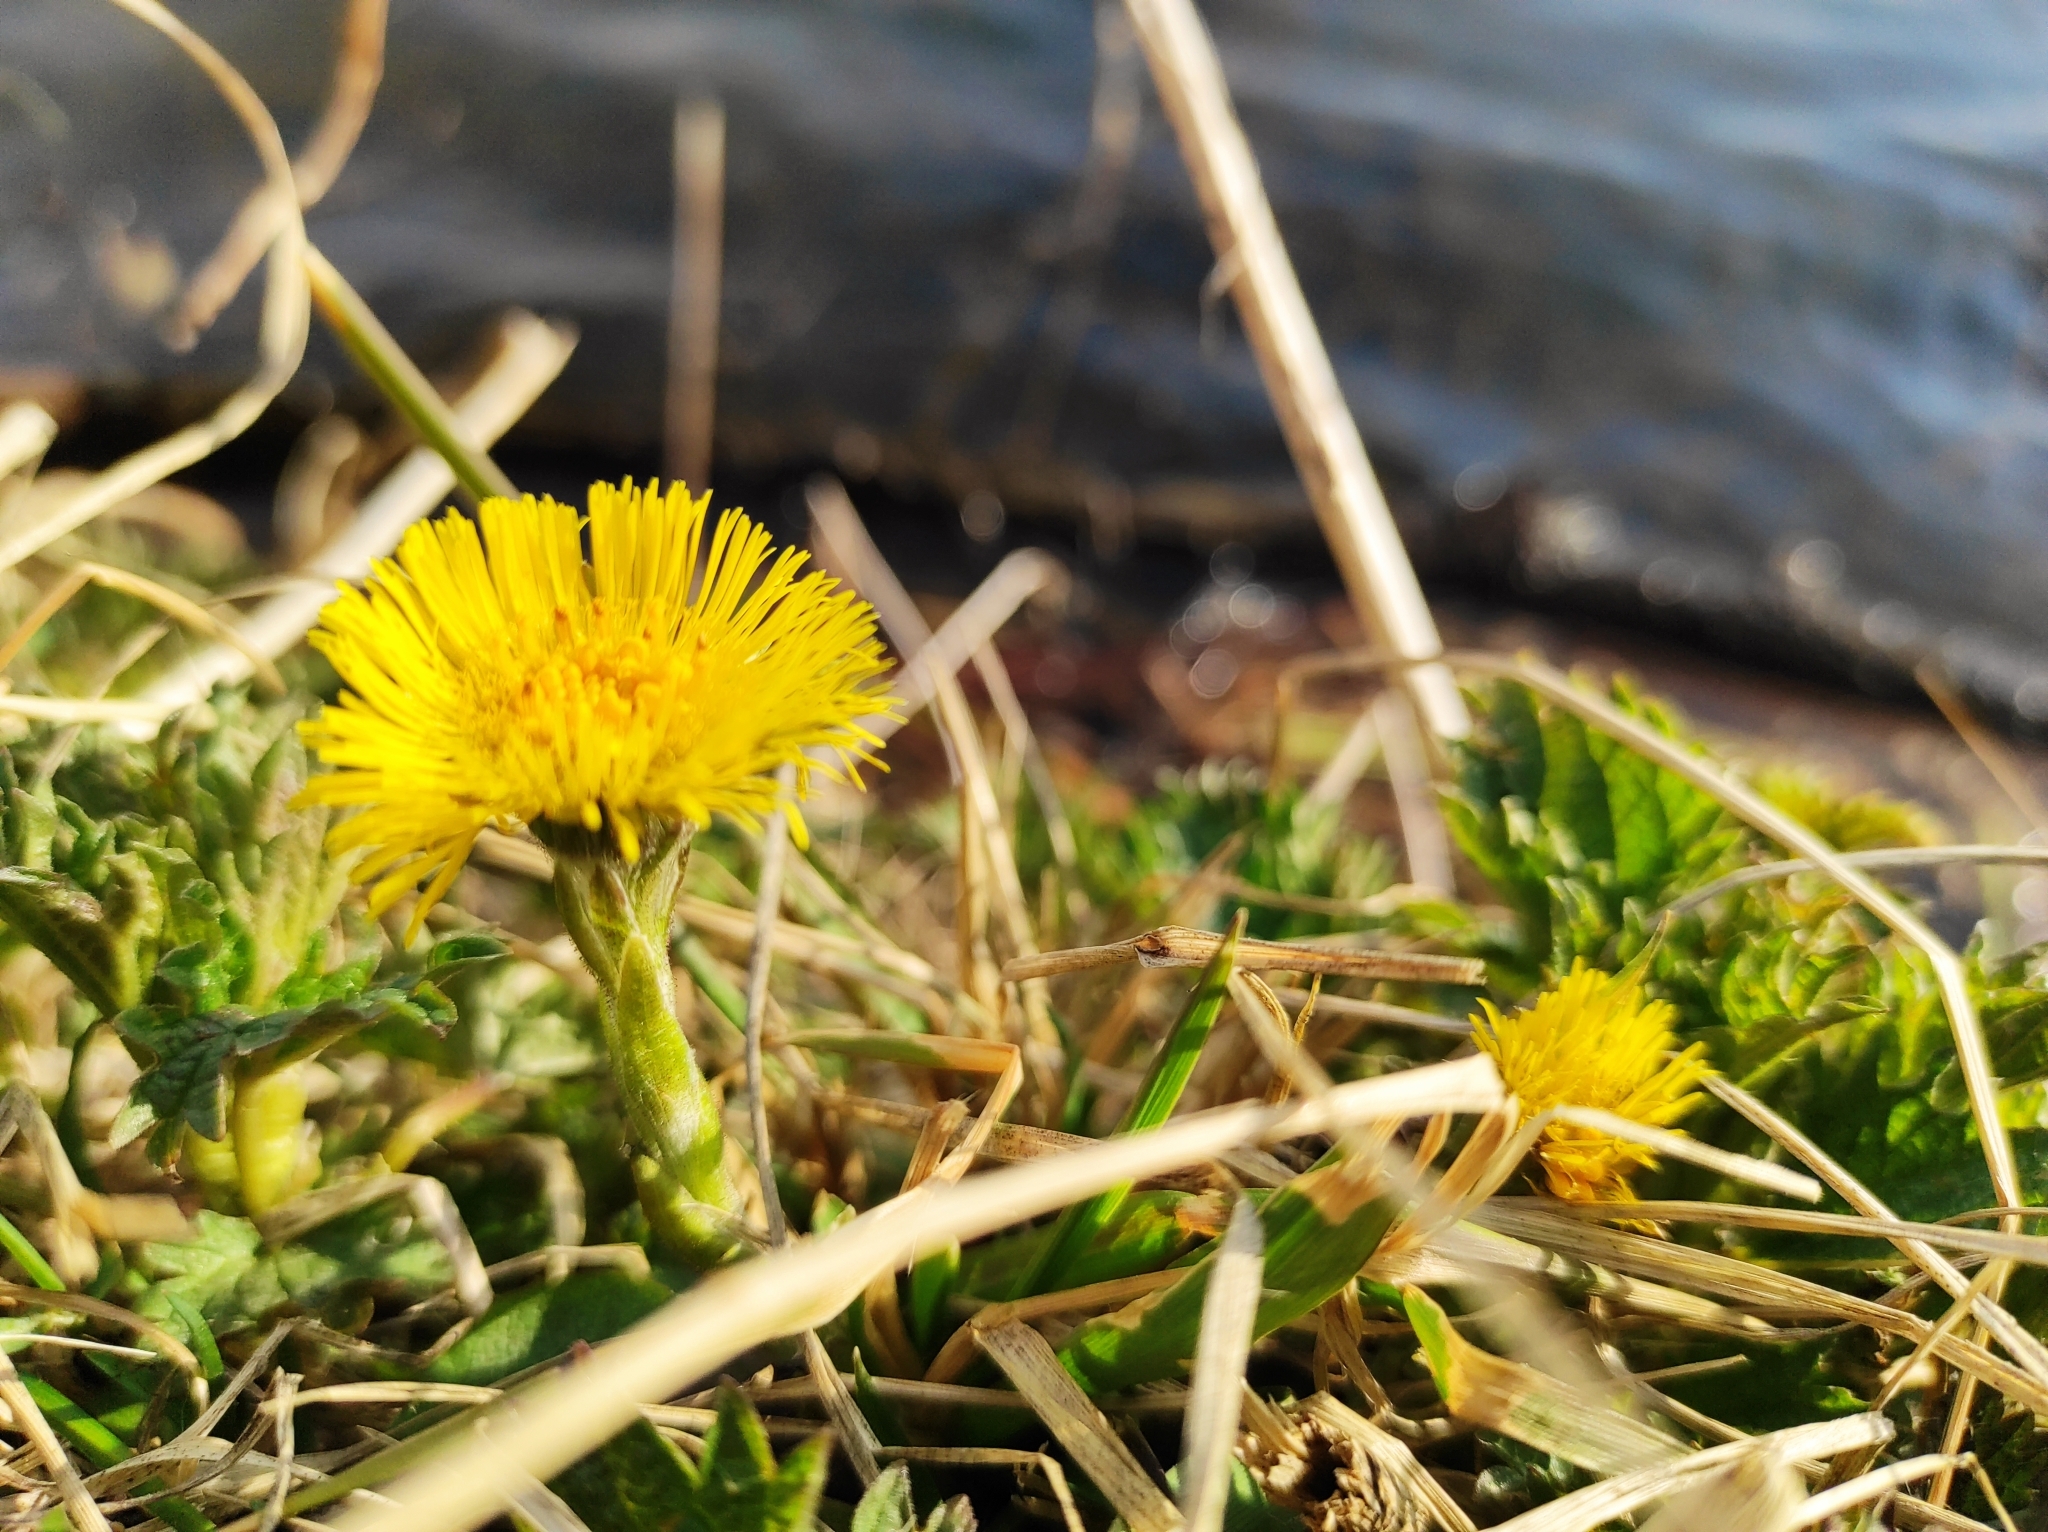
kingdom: Plantae
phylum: Tracheophyta
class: Magnoliopsida
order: Asterales
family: Asteraceae
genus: Tussilago
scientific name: Tussilago farfara
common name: Coltsfoot
